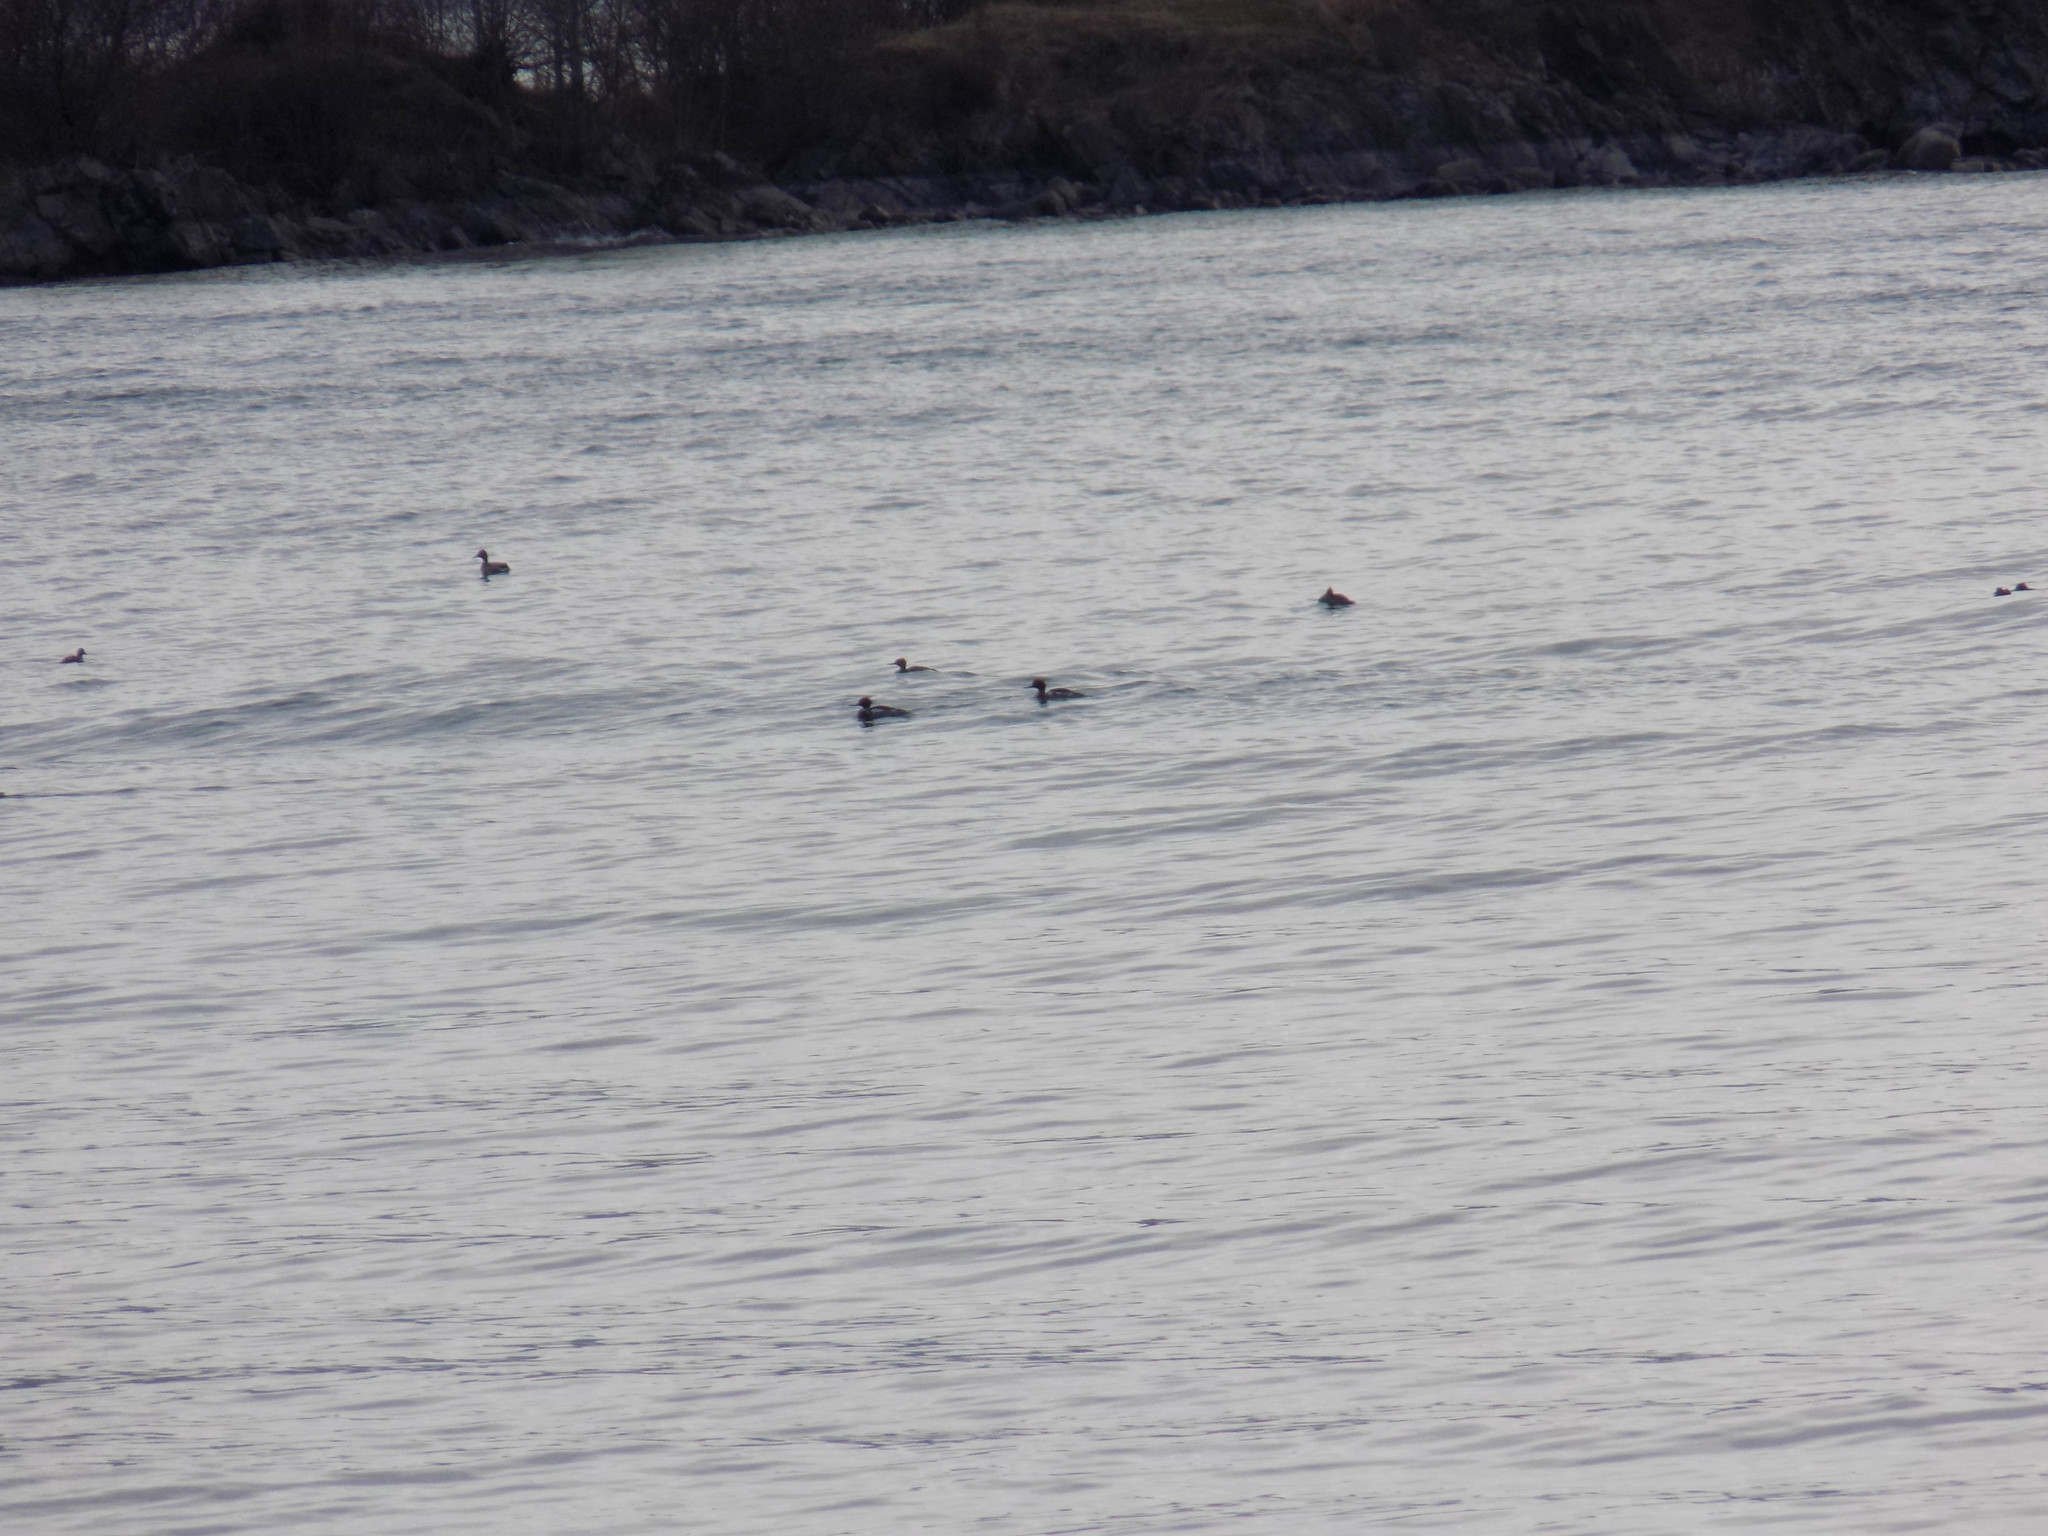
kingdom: Animalia
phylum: Chordata
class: Aves
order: Anseriformes
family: Anatidae
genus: Mergus
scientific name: Mergus serrator
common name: Red-breasted merganser
